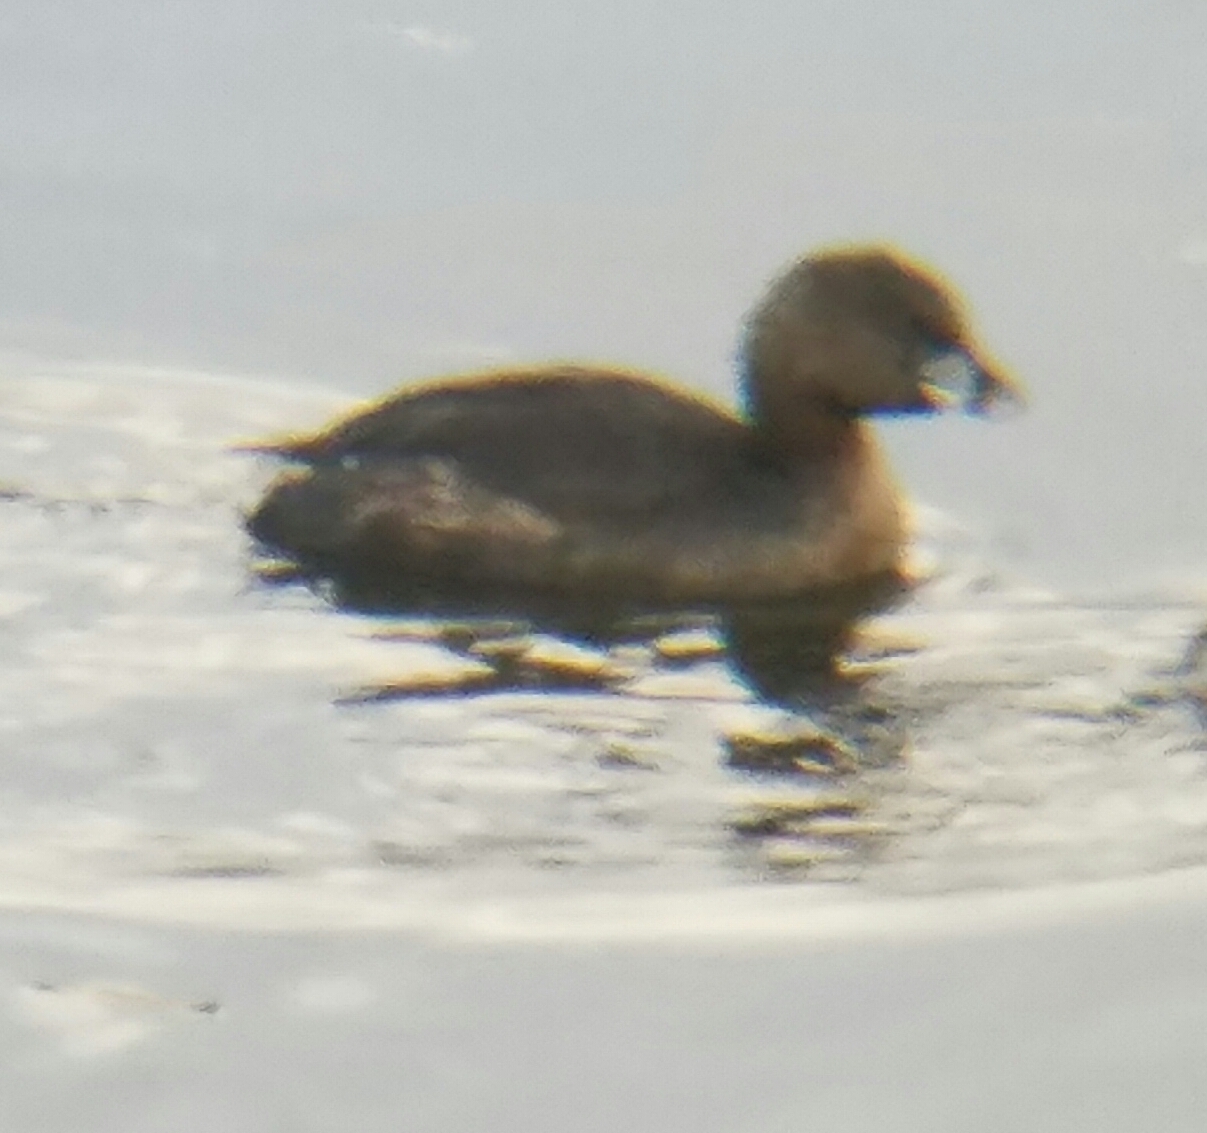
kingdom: Animalia
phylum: Chordata
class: Aves
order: Podicipediformes
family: Podicipedidae
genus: Podilymbus
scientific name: Podilymbus podiceps
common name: Pied-billed grebe
